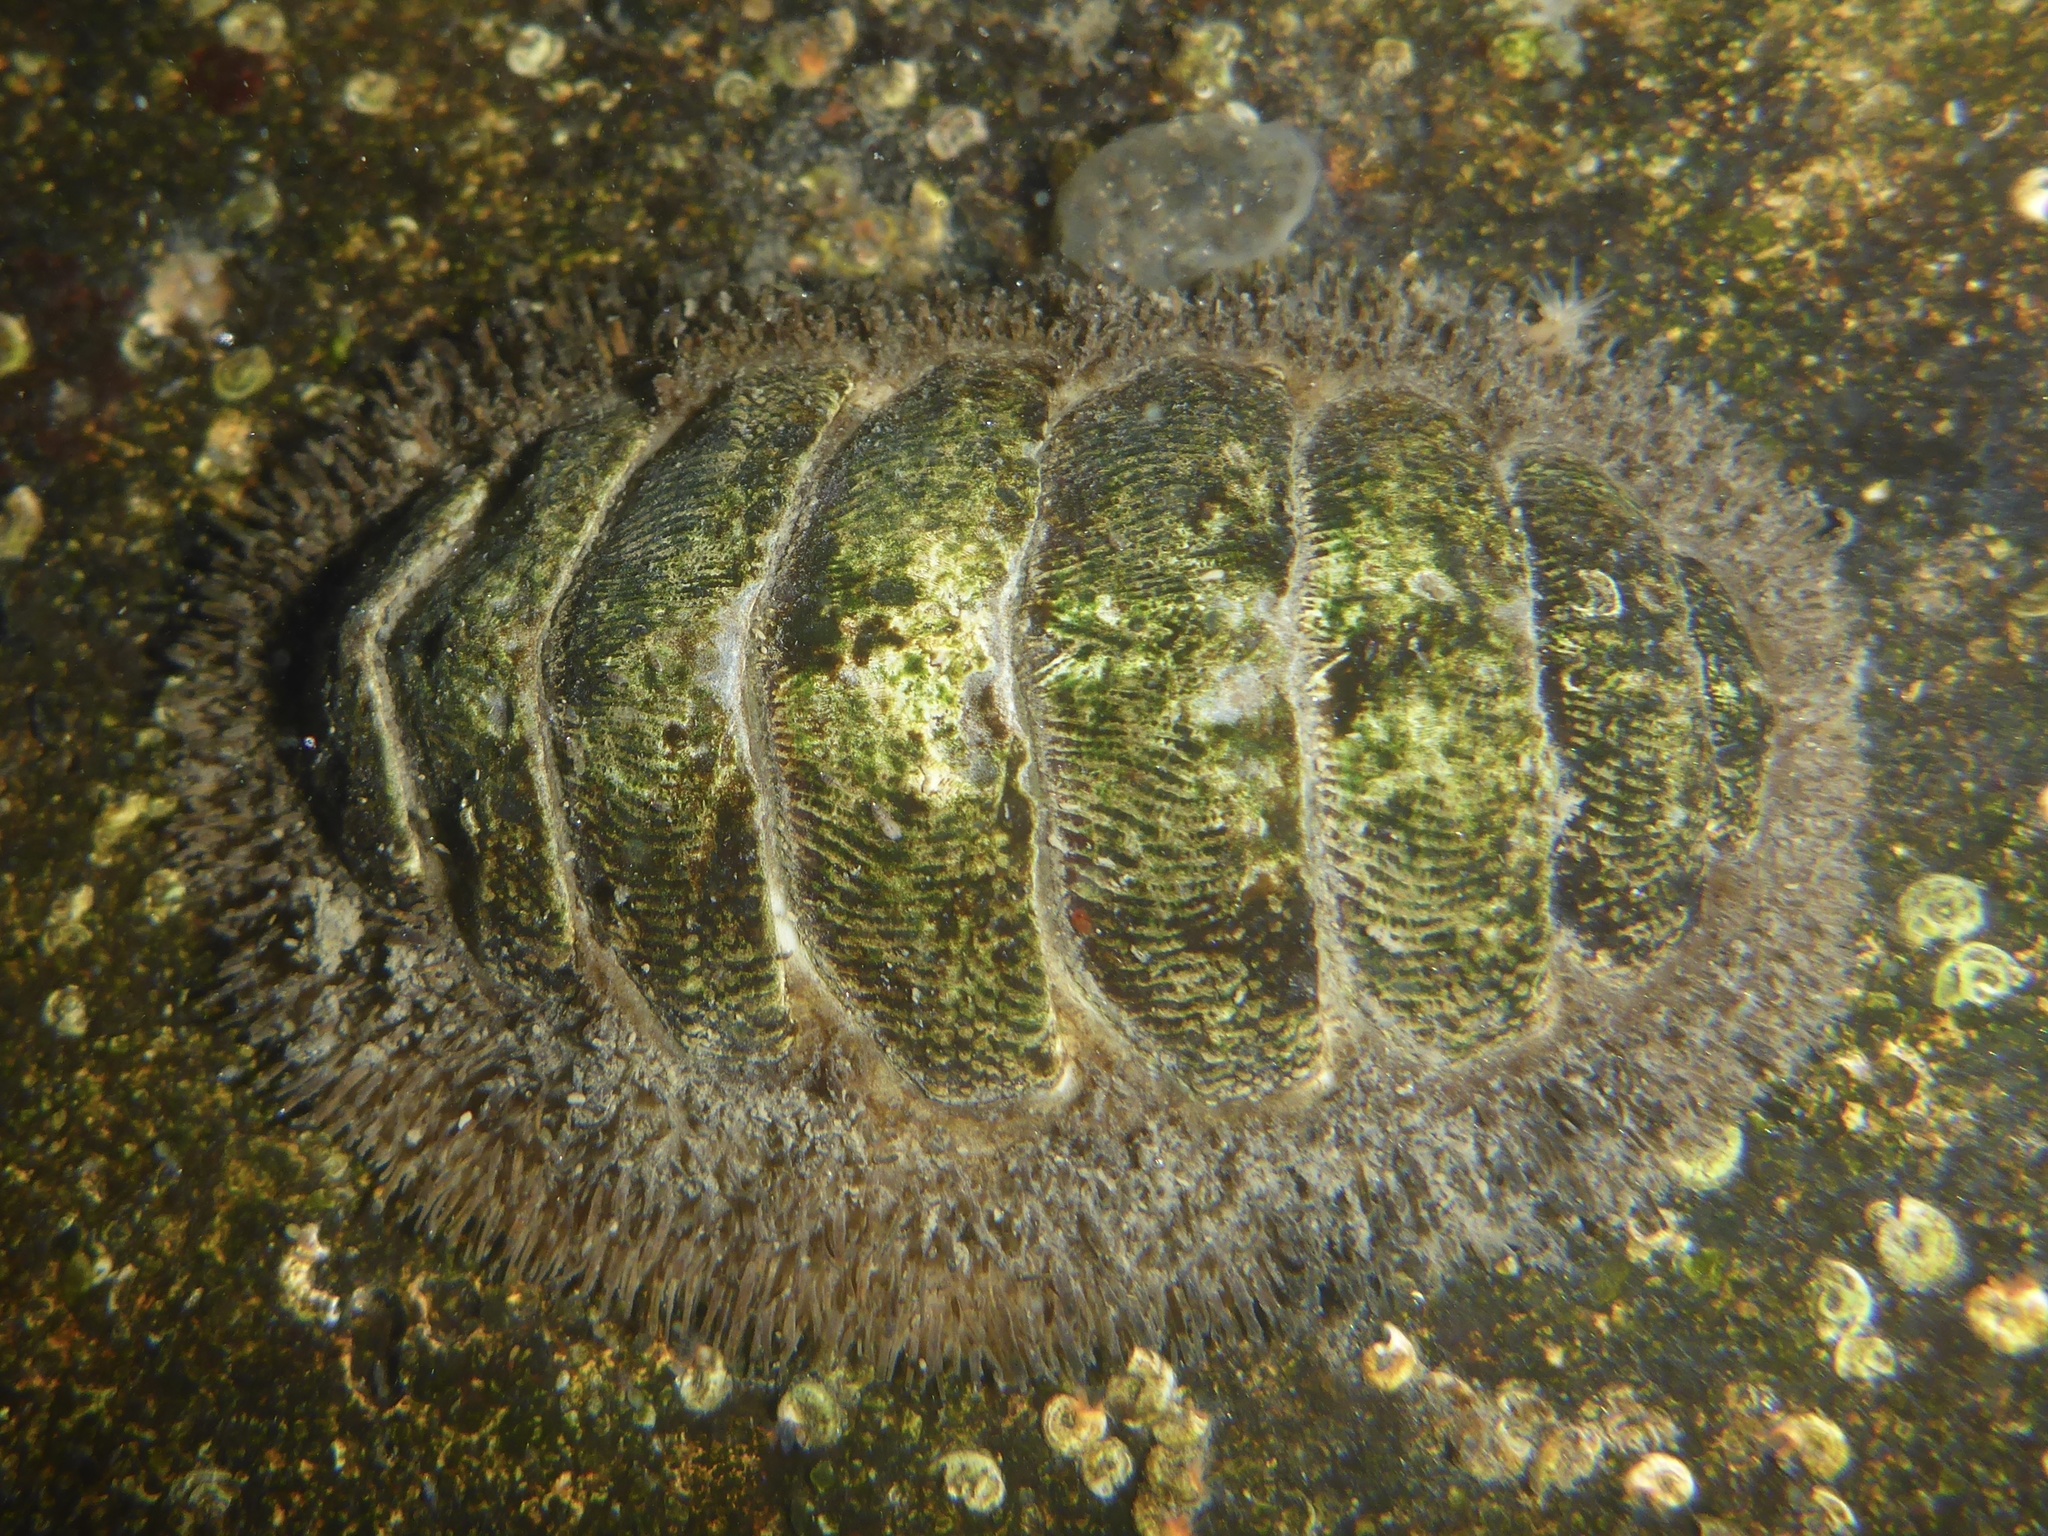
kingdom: Animalia
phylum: Mollusca
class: Polyplacophora
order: Chitonida
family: Mopaliidae
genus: Mopalia
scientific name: Mopalia muscosa
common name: Mossy chiton
